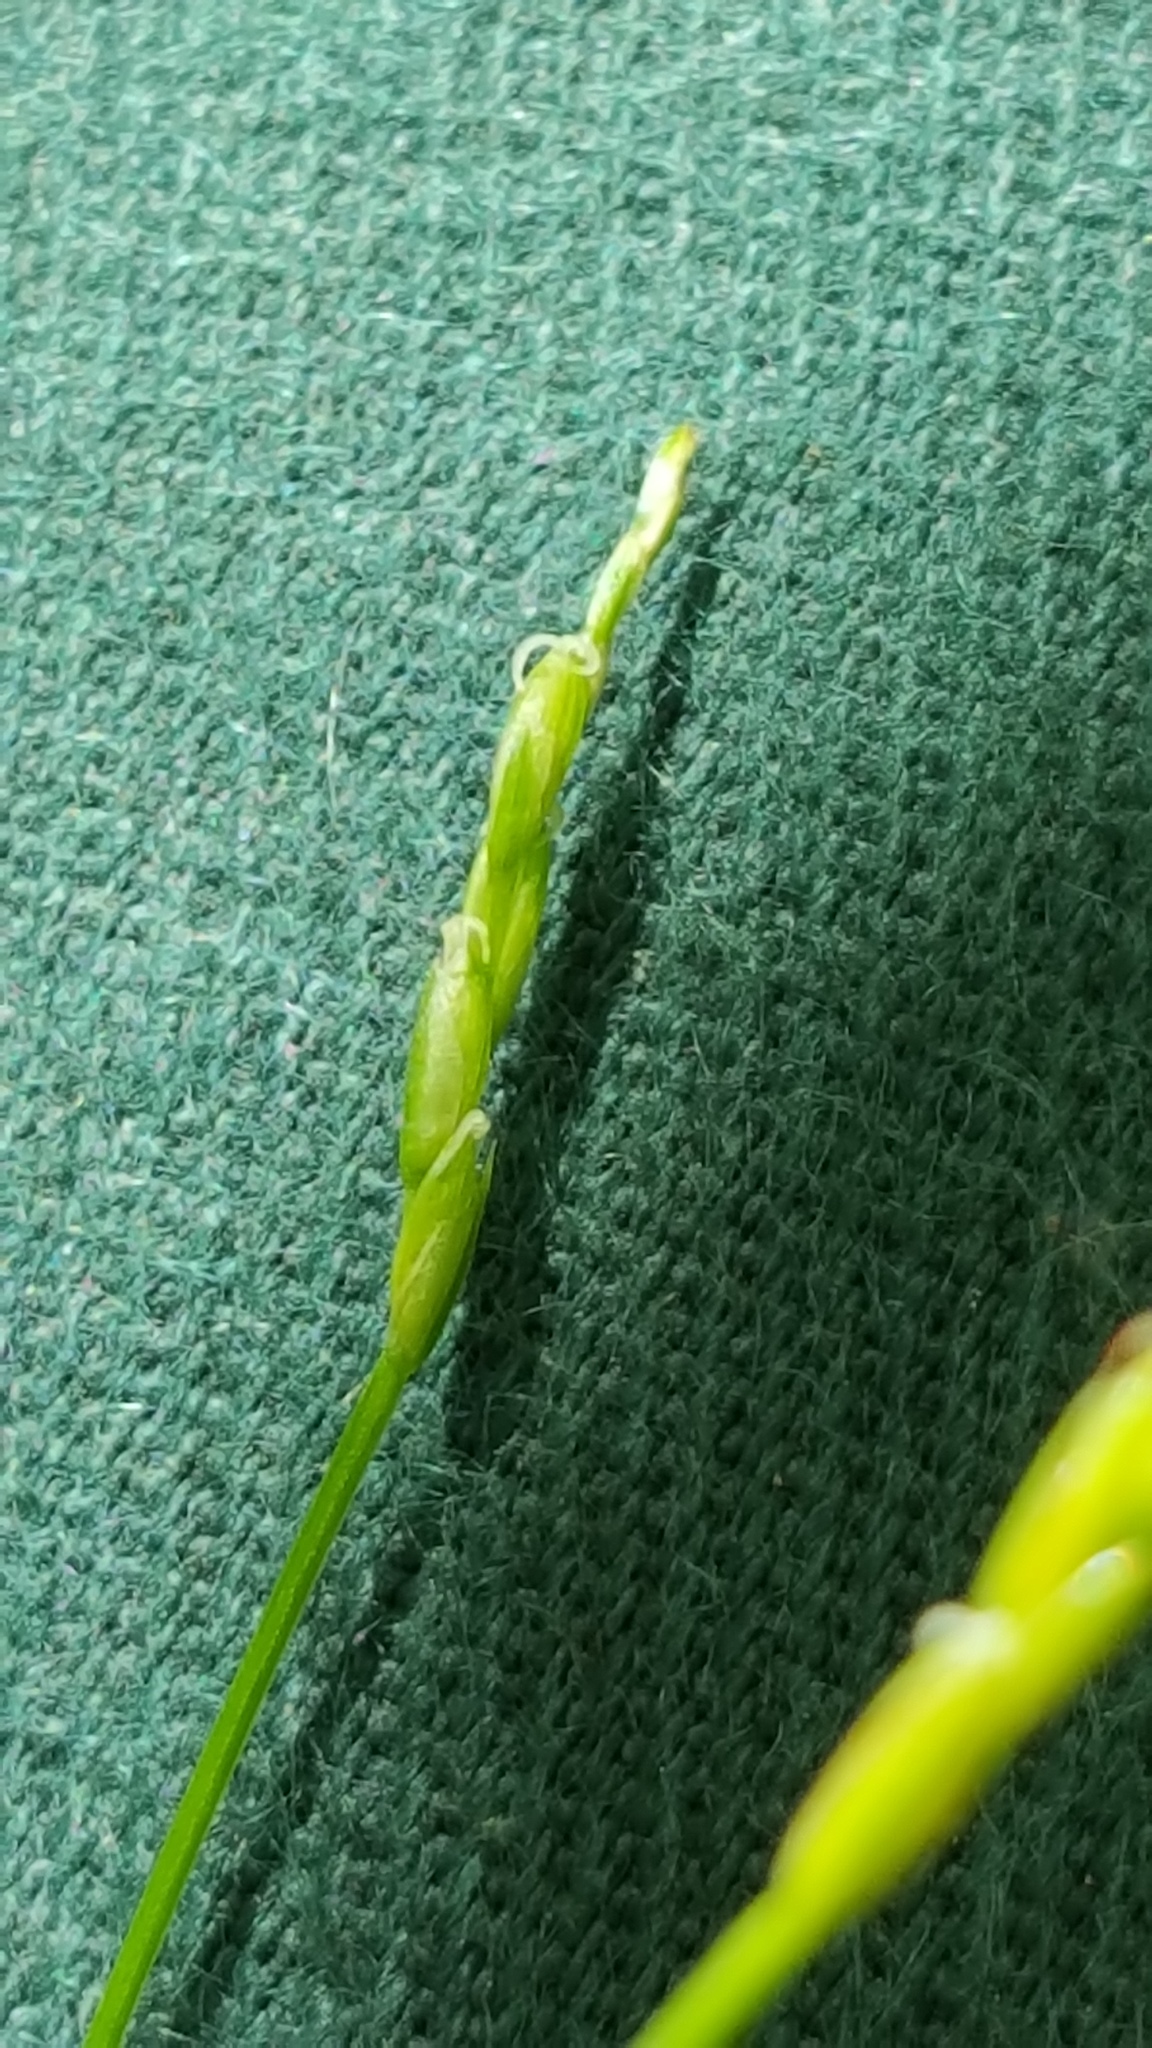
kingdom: Plantae
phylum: Tracheophyta
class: Liliopsida
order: Poales
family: Cyperaceae
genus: Carex
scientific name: Carex leptalea
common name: Bristly-stalked sedge
